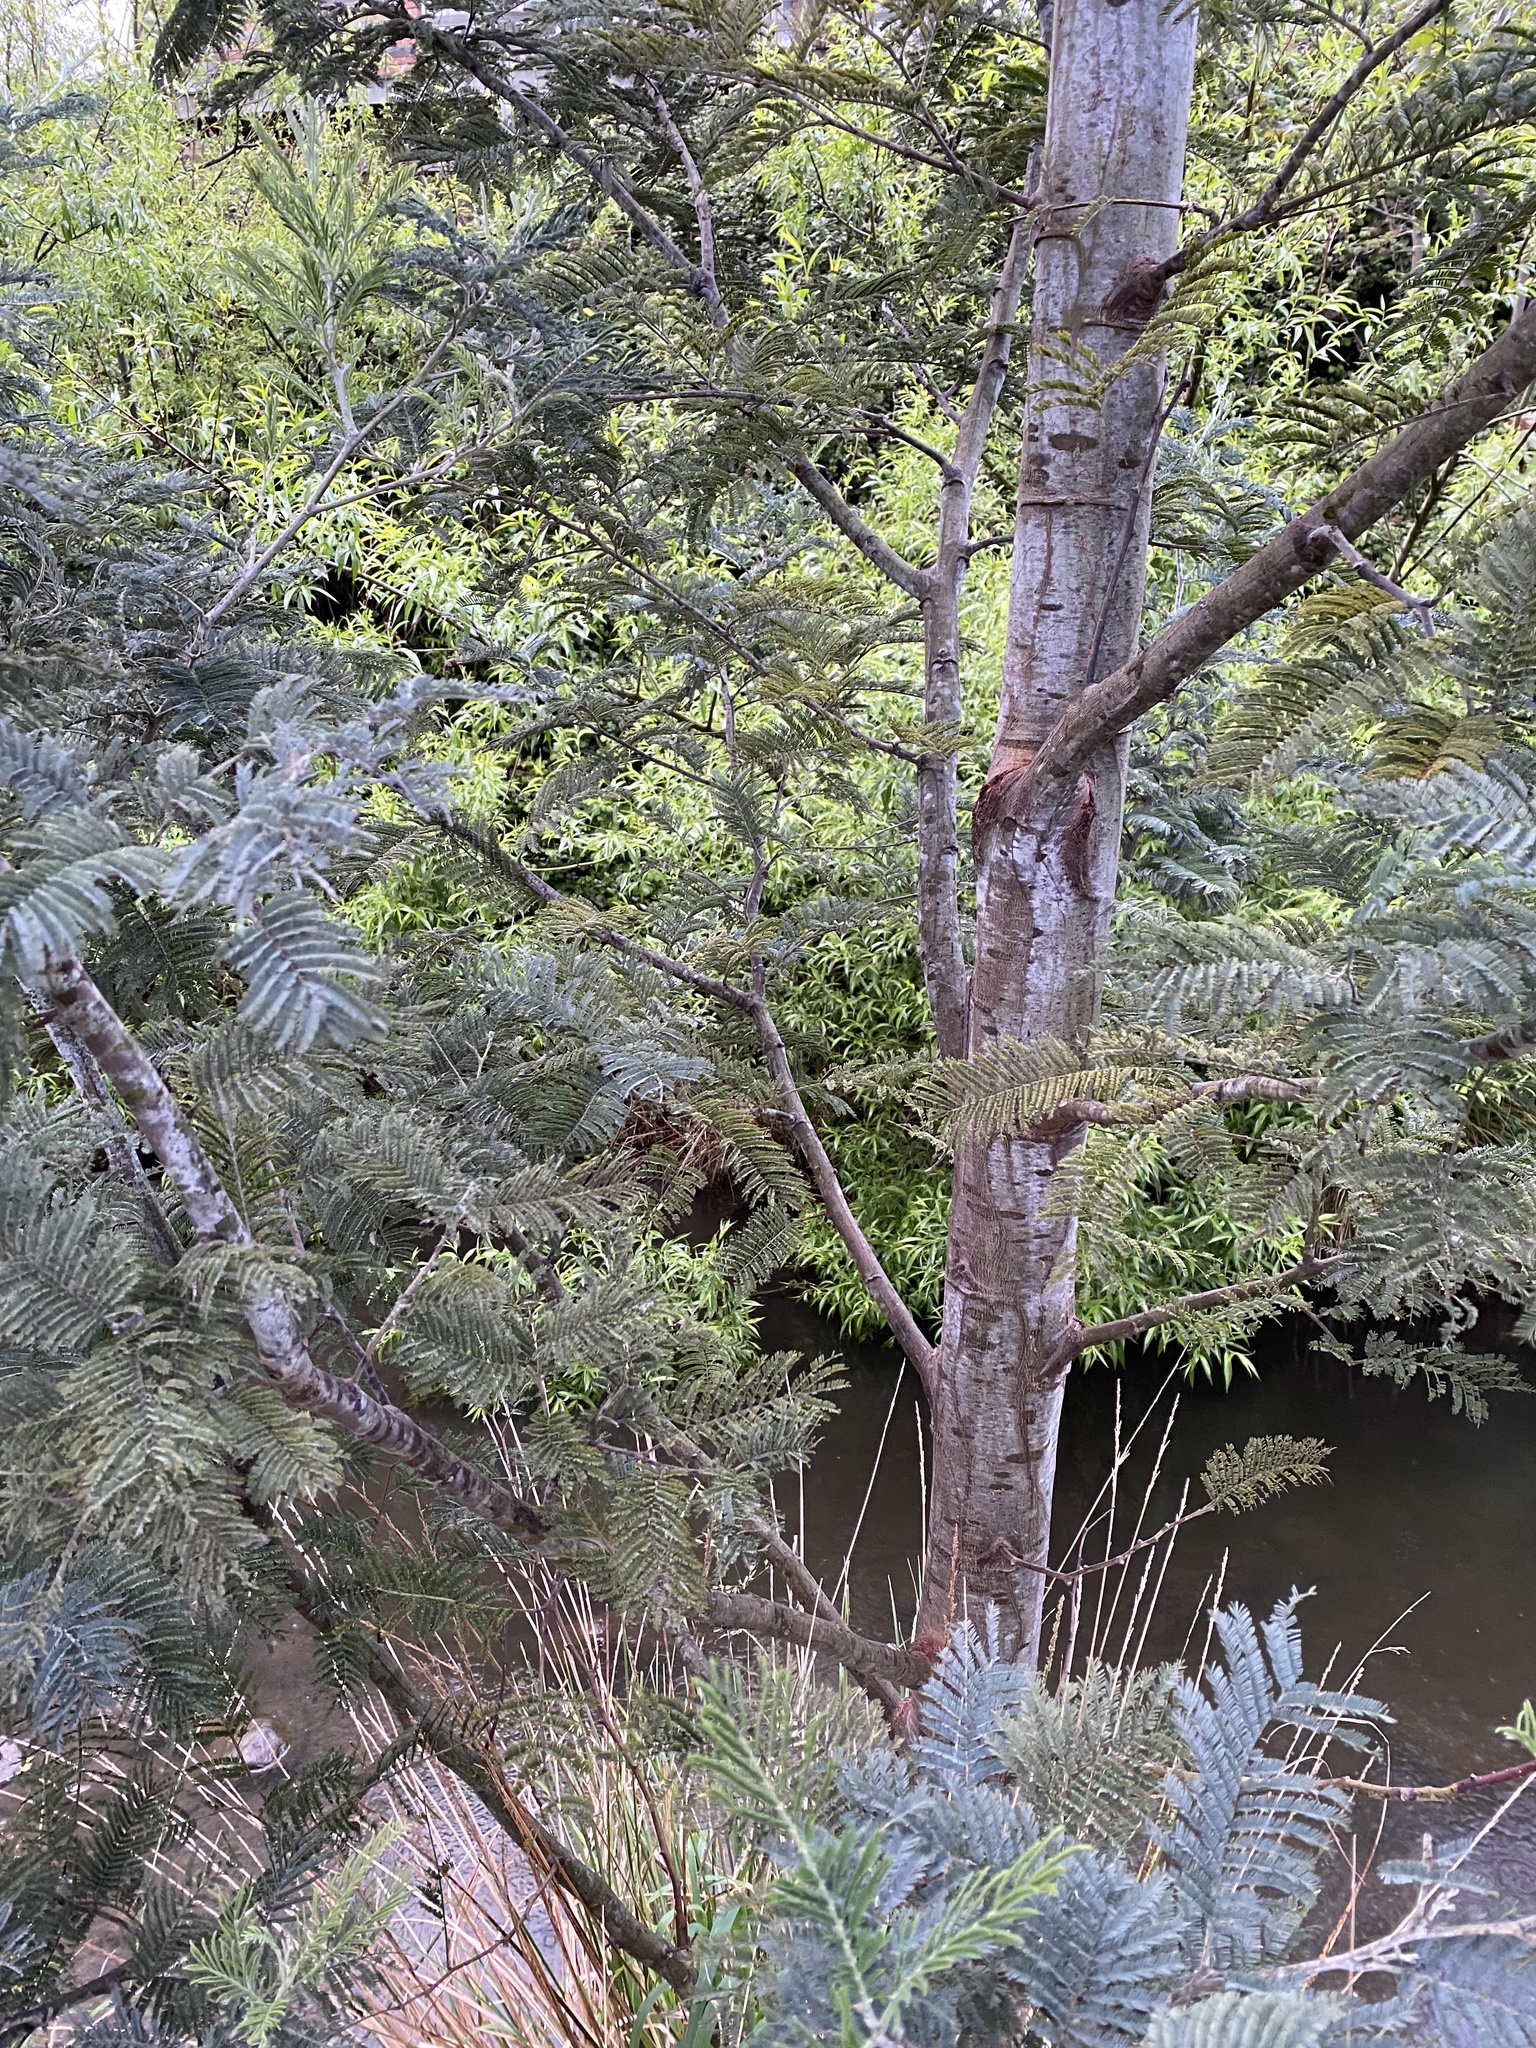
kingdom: Plantae
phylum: Tracheophyta
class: Magnoliopsida
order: Fabales
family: Fabaceae
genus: Acacia
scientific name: Acacia dealbata
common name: Silver wattle
